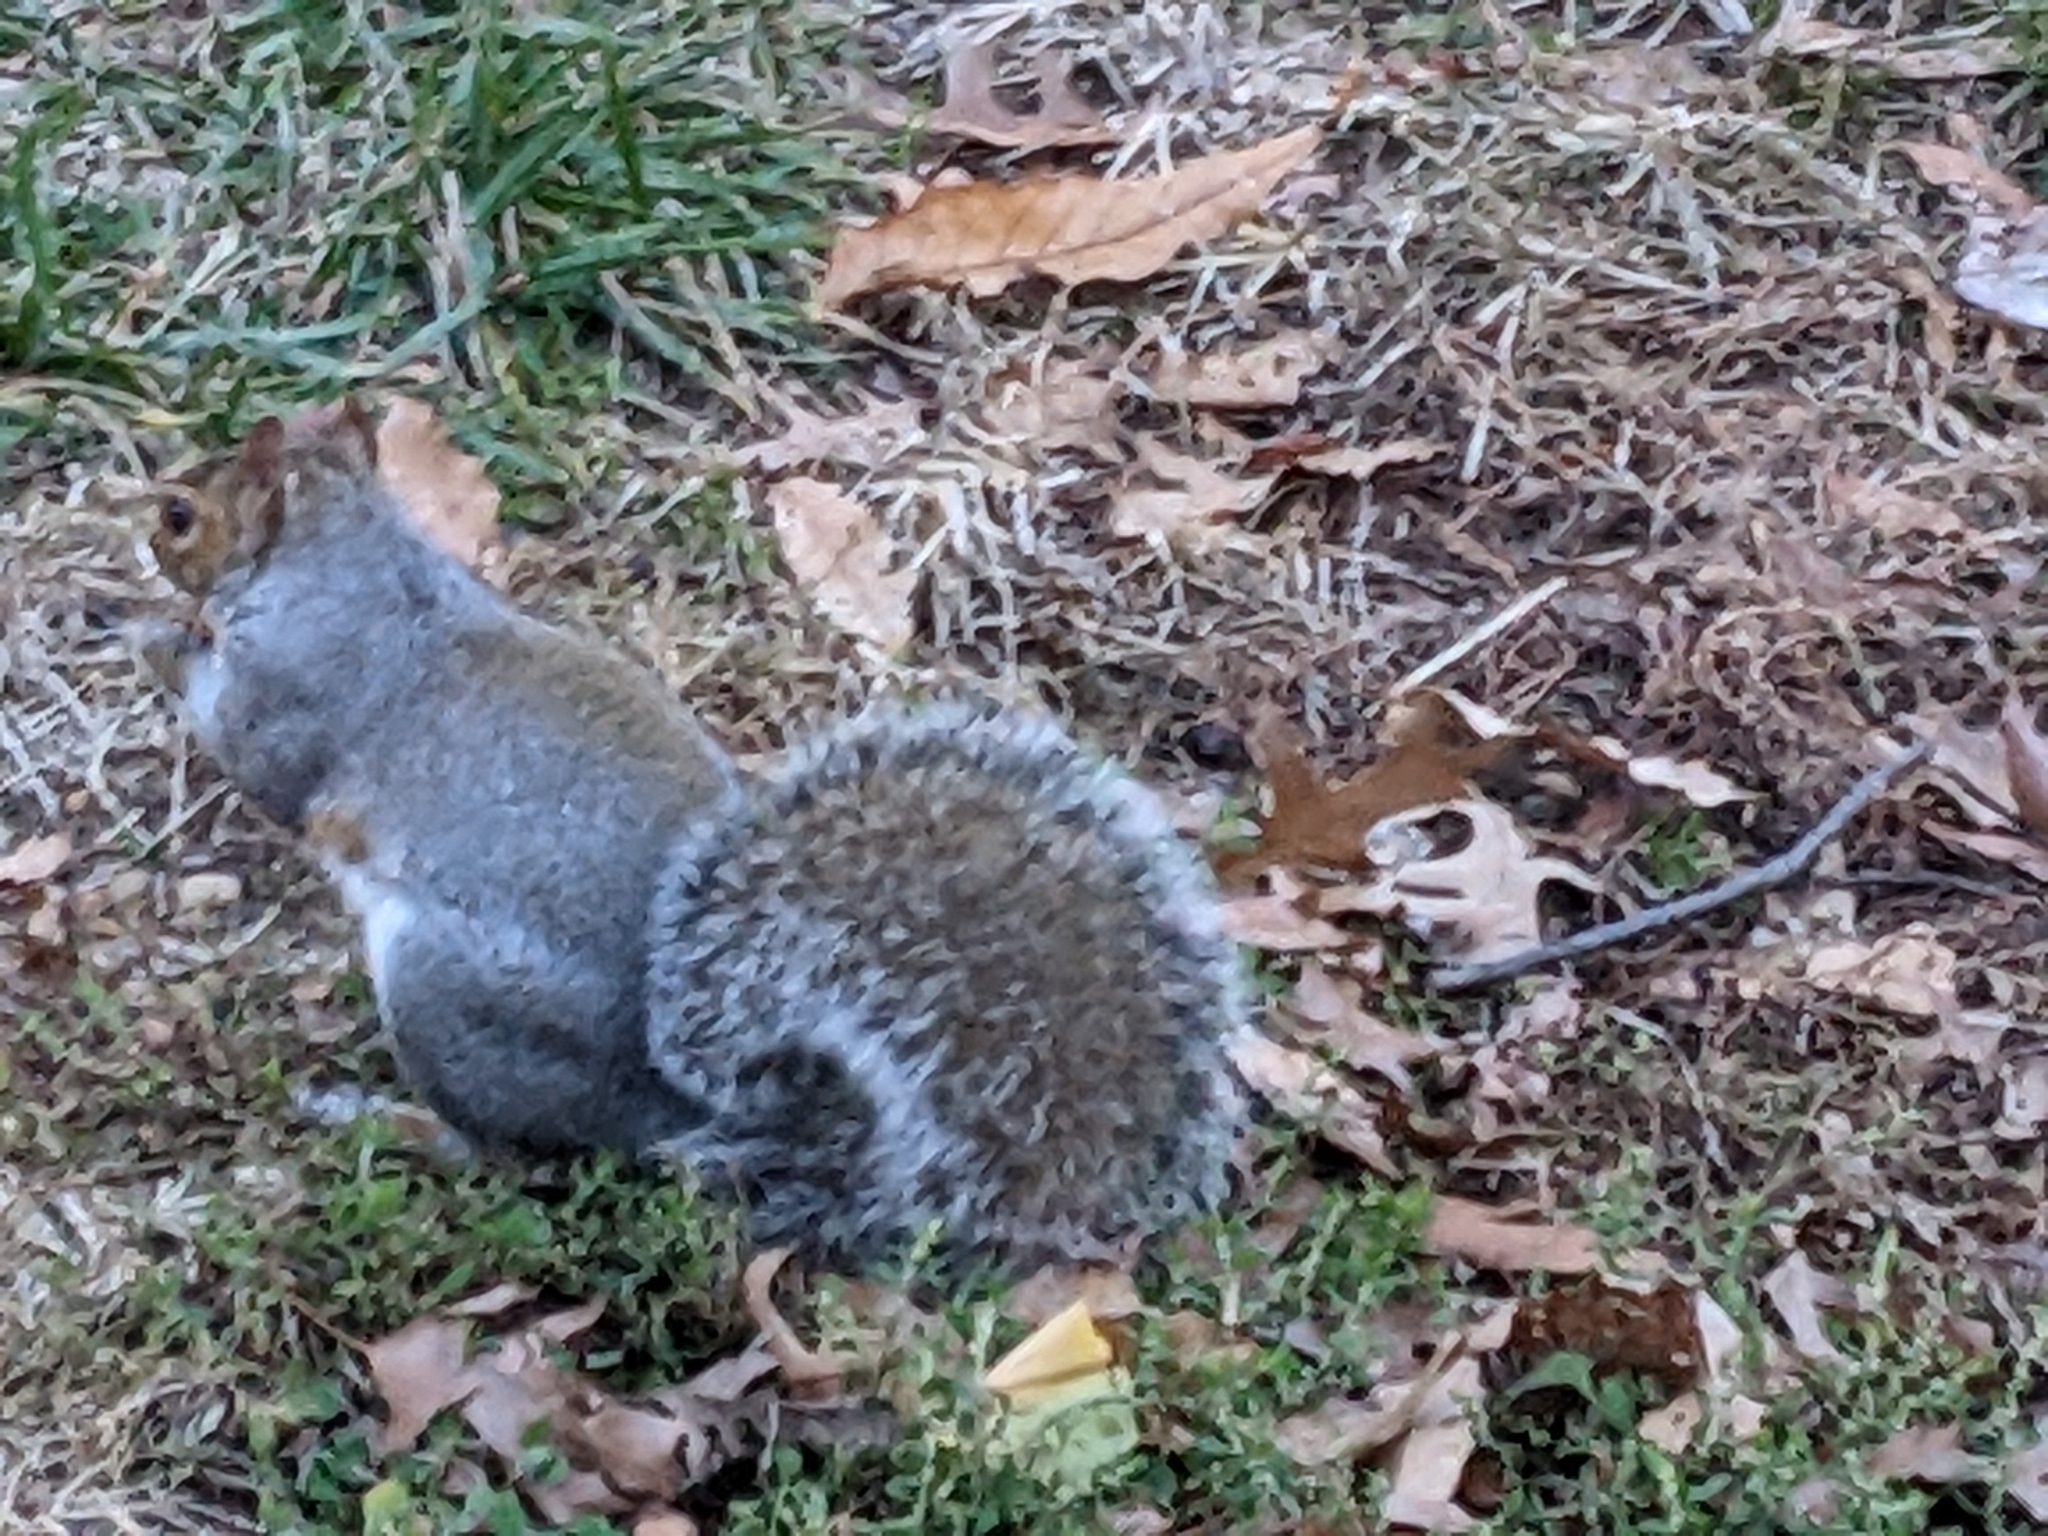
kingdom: Animalia
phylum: Chordata
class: Mammalia
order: Rodentia
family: Sciuridae
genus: Sciurus
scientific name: Sciurus carolinensis
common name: Eastern gray squirrel
